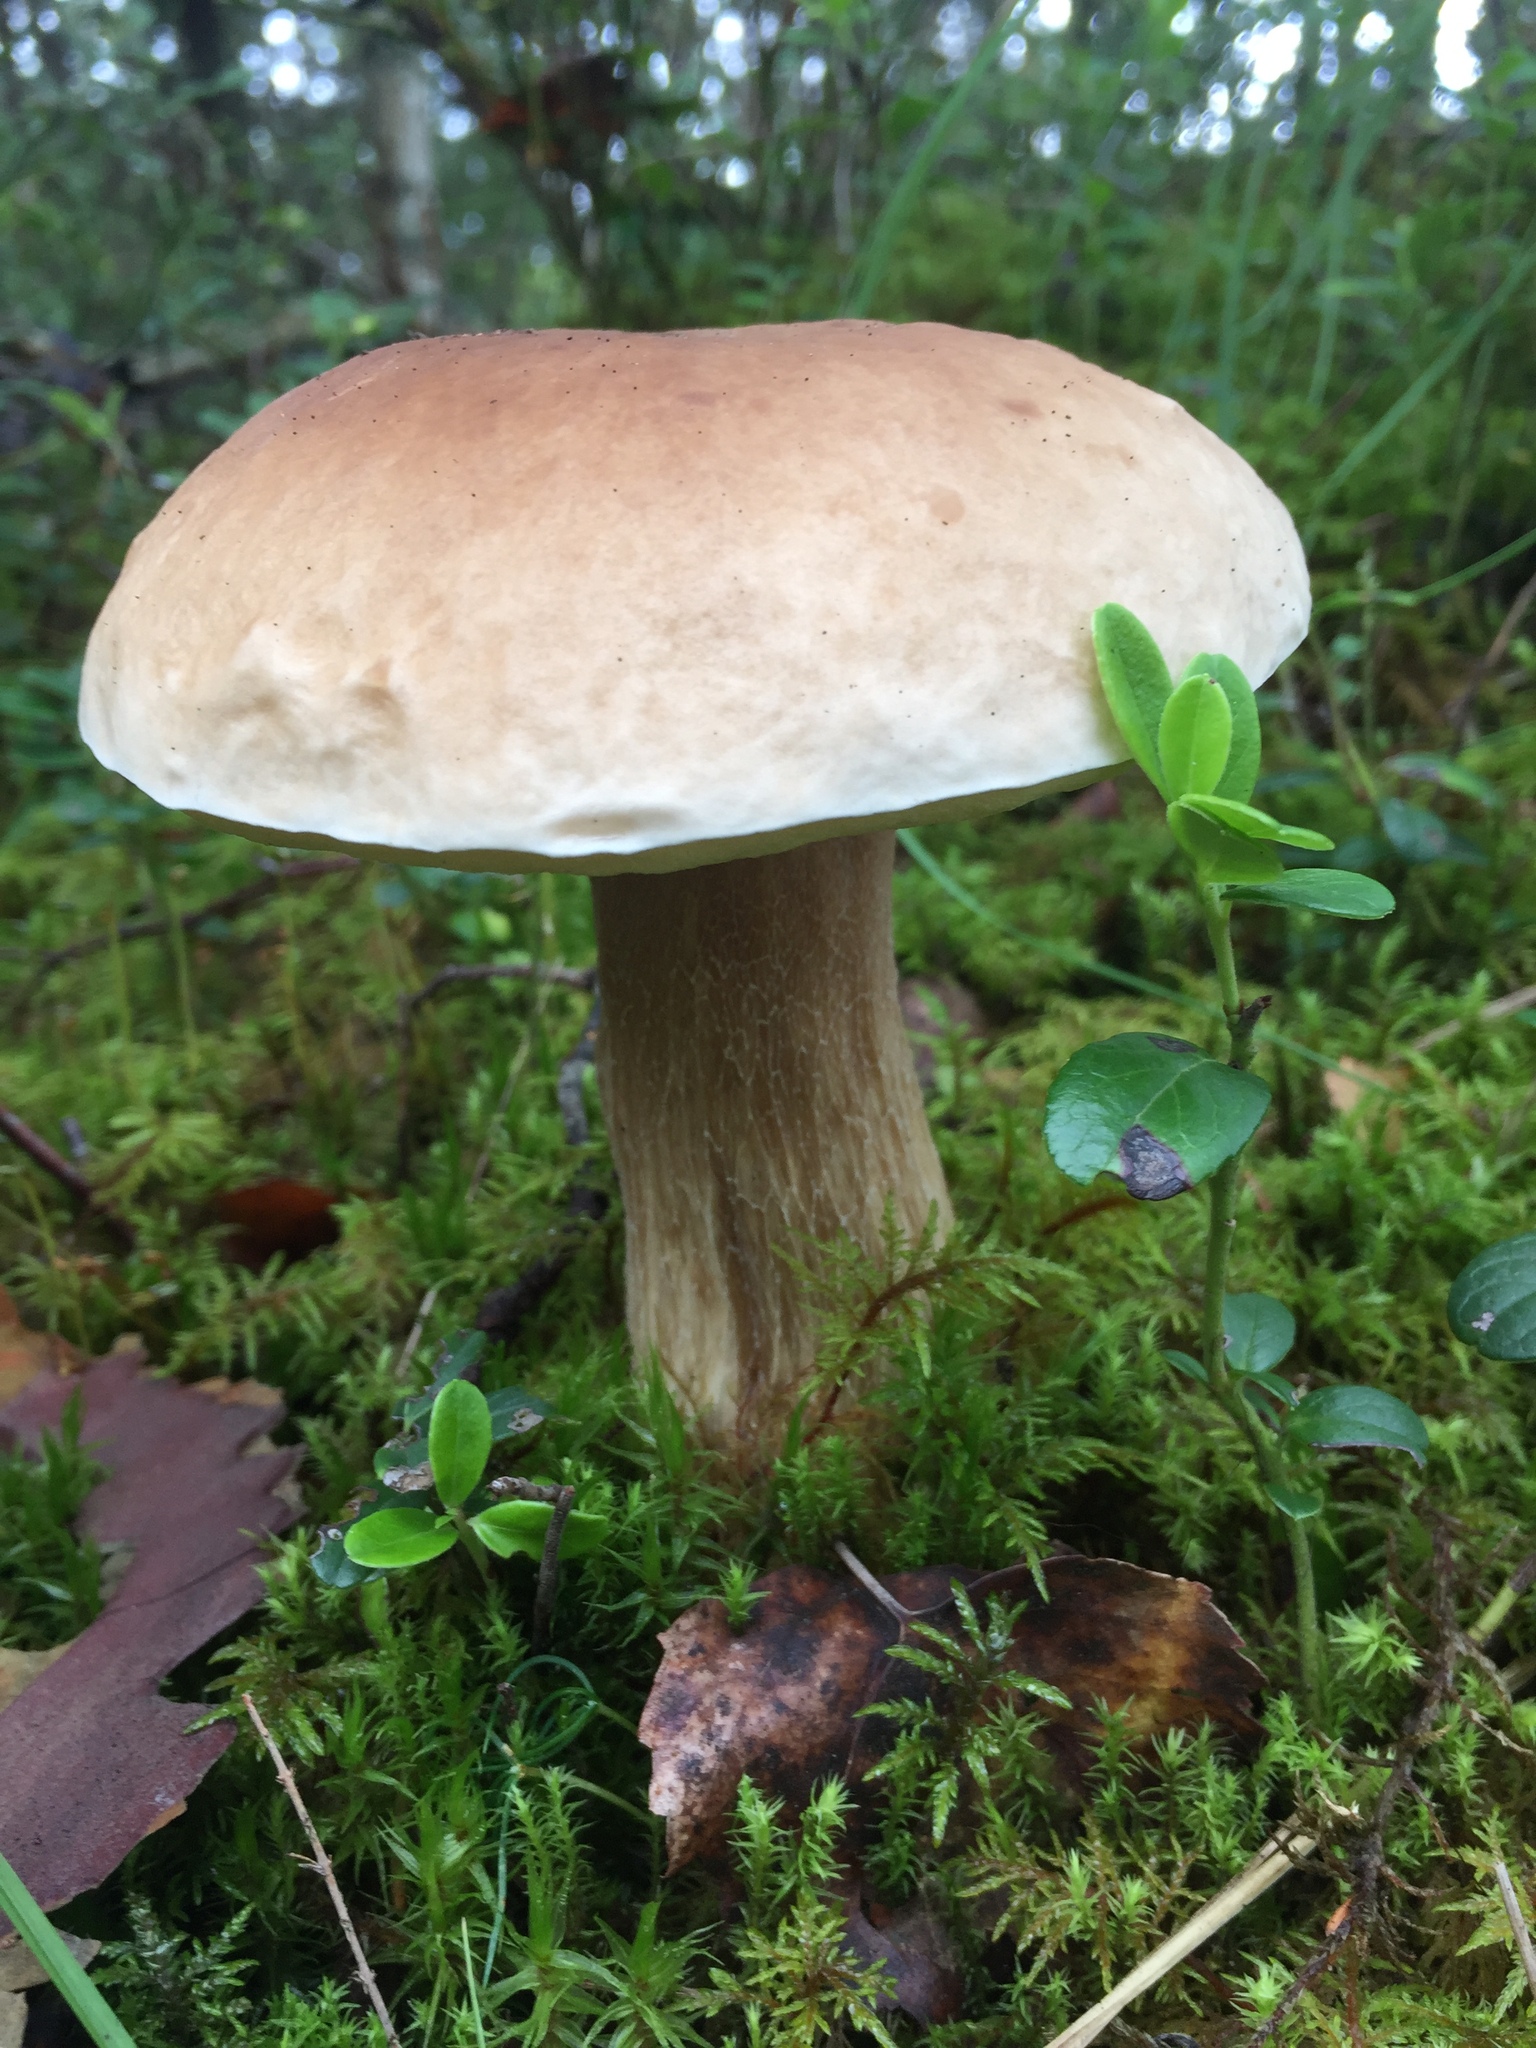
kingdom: Fungi
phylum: Basidiomycota
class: Agaricomycetes
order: Boletales
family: Boletaceae
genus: Boletus
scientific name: Boletus edulis
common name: Cep
